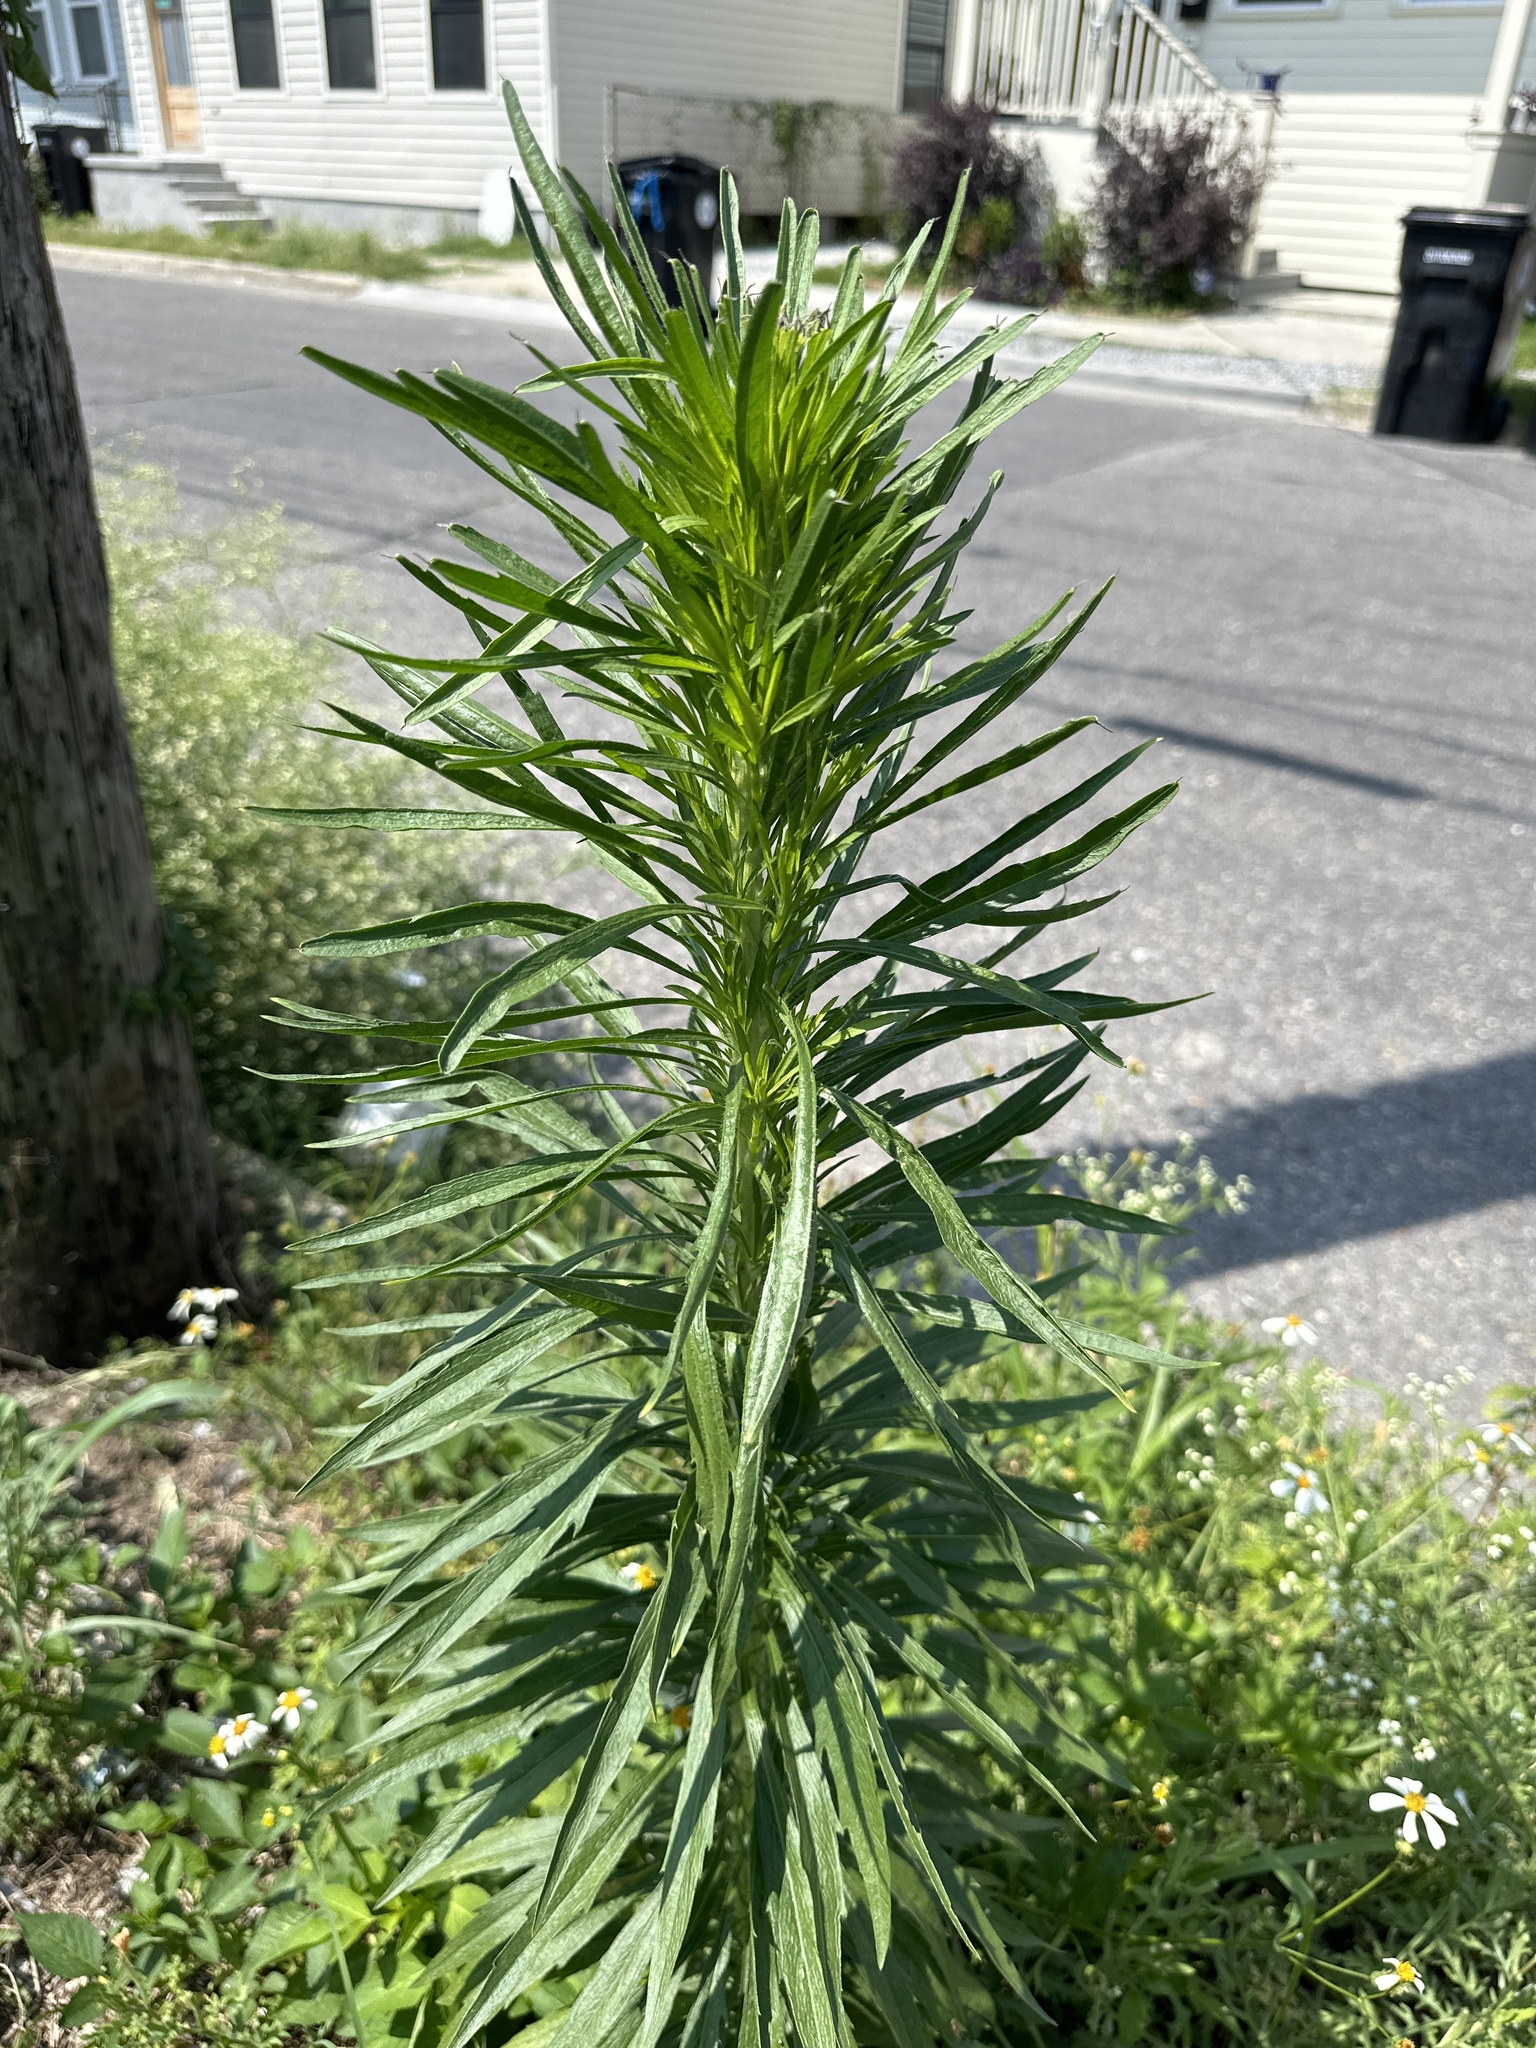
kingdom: Plantae
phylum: Tracheophyta
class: Magnoliopsida
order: Asterales
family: Asteraceae
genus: Erigeron
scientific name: Erigeron canadensis
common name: Canadian fleabane
